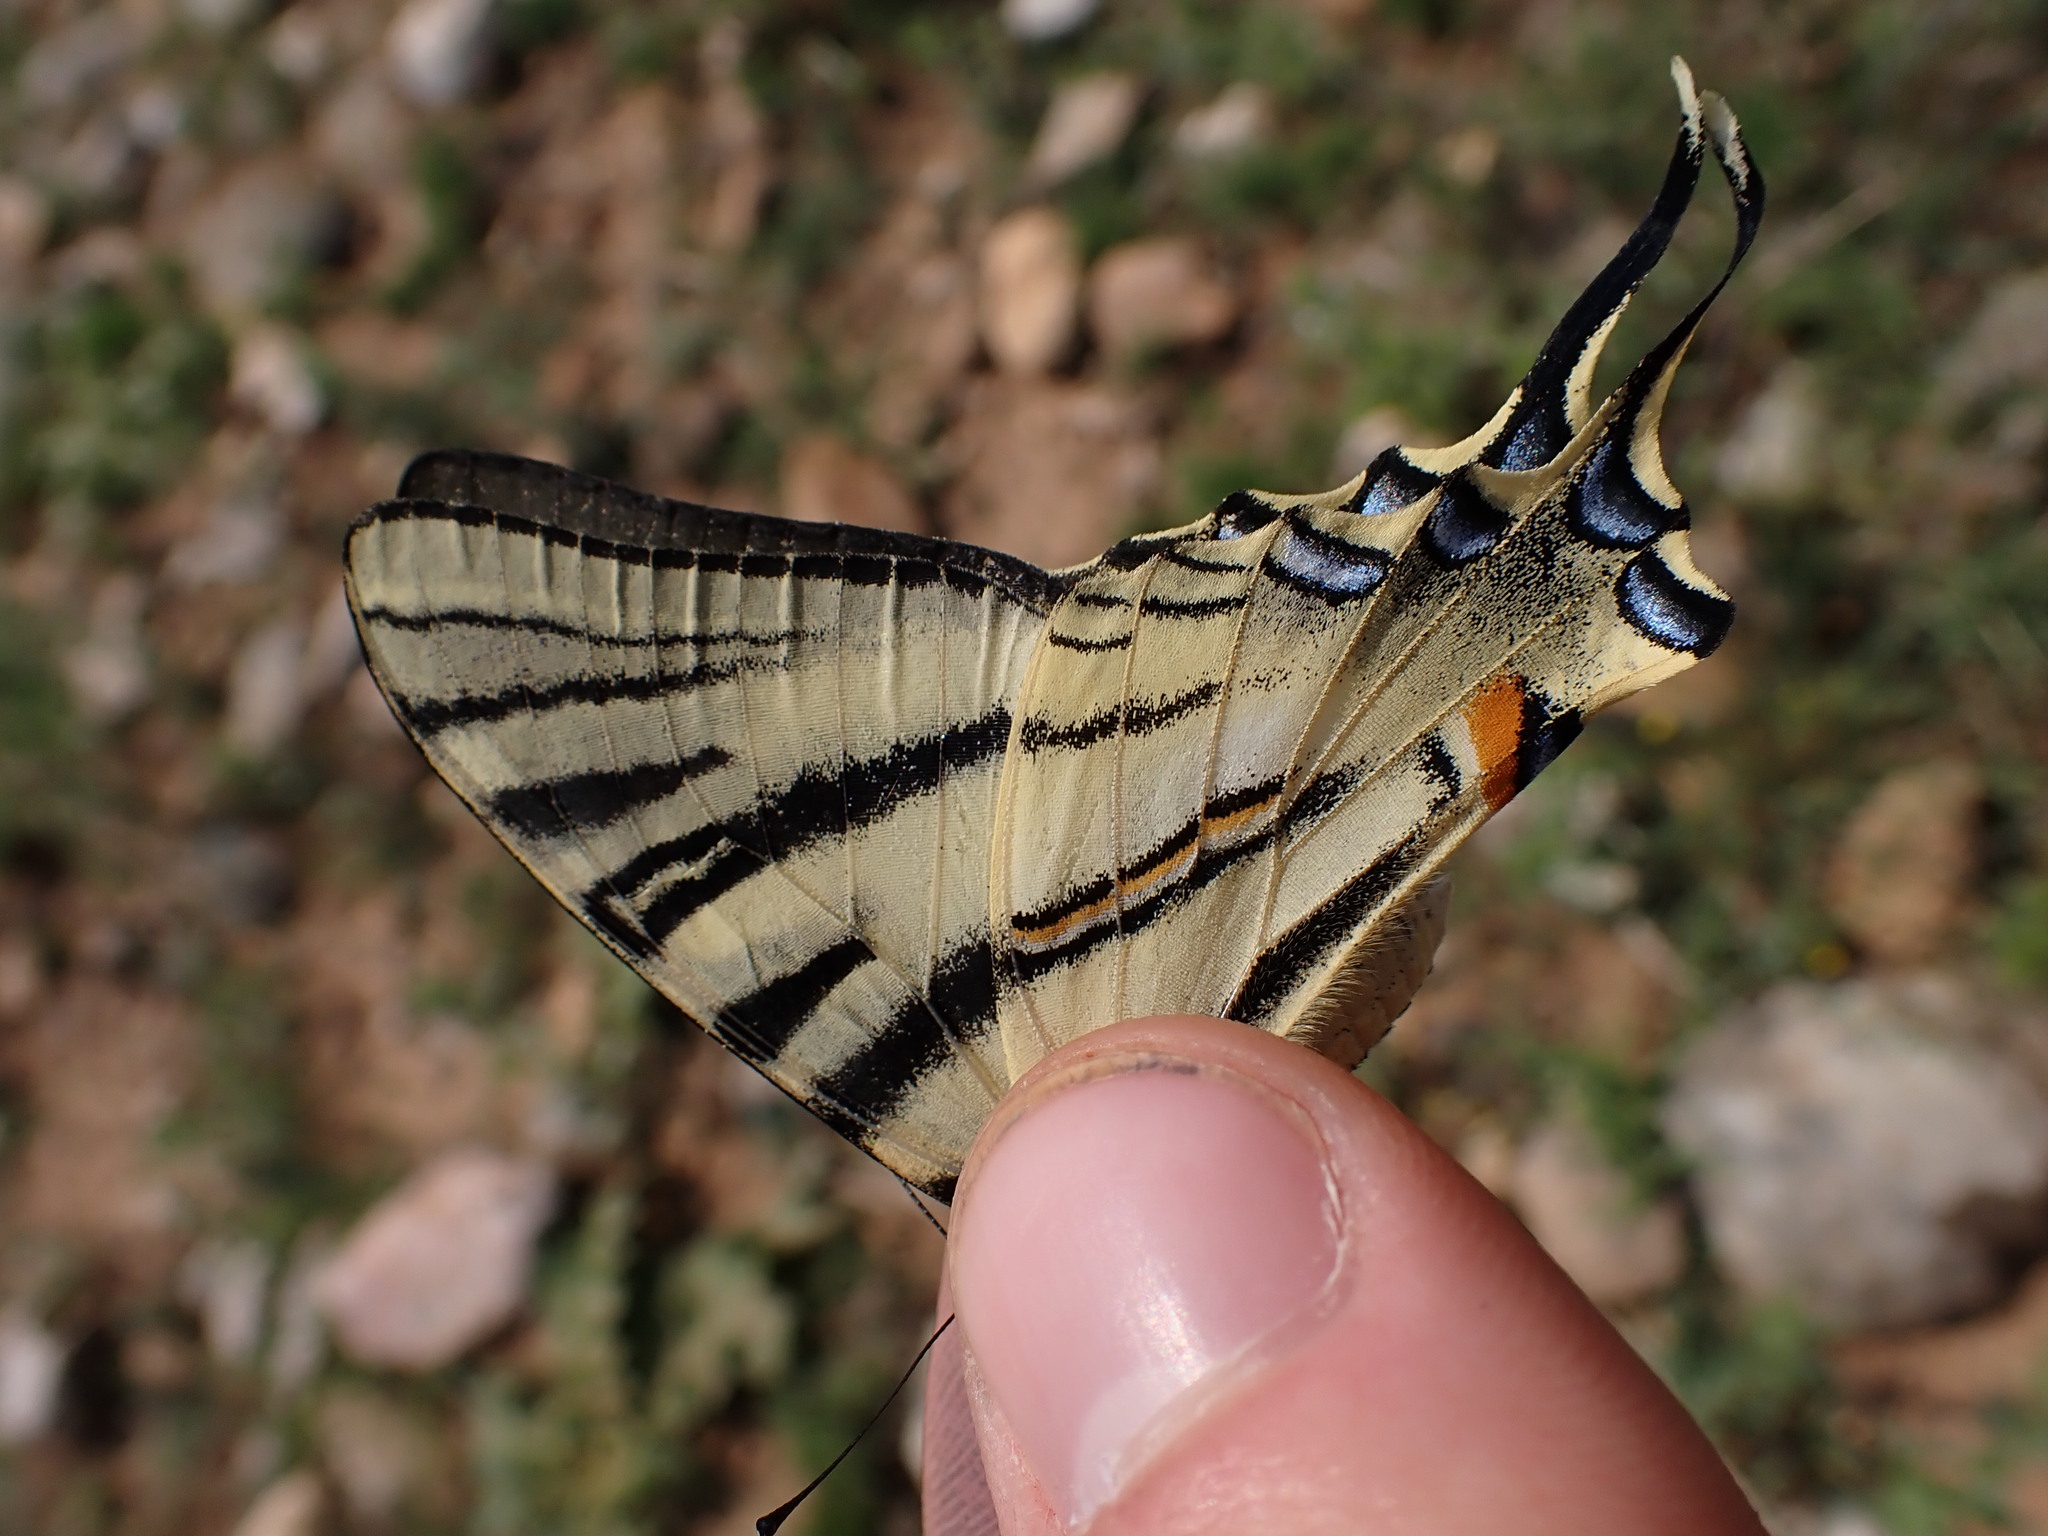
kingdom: Animalia
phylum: Arthropoda
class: Insecta
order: Lepidoptera
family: Papilionidae
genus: Iphiclides
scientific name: Iphiclides podalirius
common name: Scarce swallowtail
